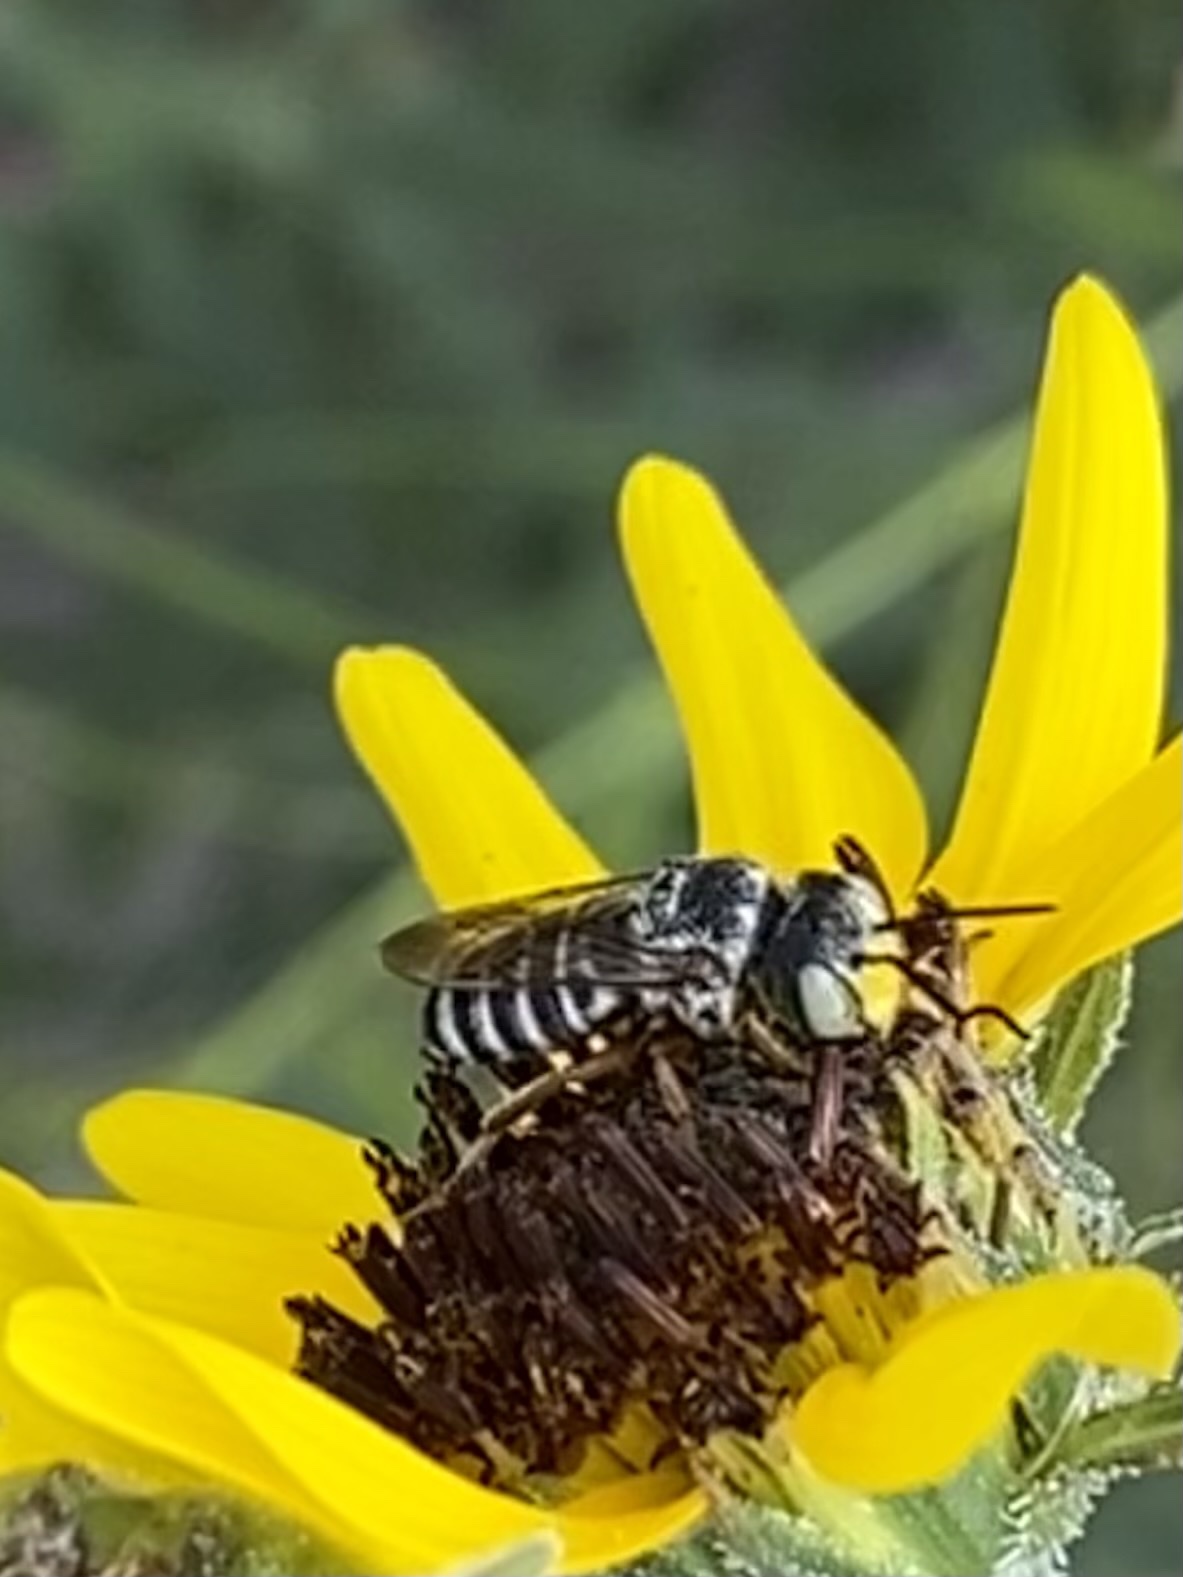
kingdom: Animalia
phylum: Arthropoda
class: Insecta
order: Hymenoptera
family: Megachilidae
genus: Coelioxys
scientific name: Coelioxys
